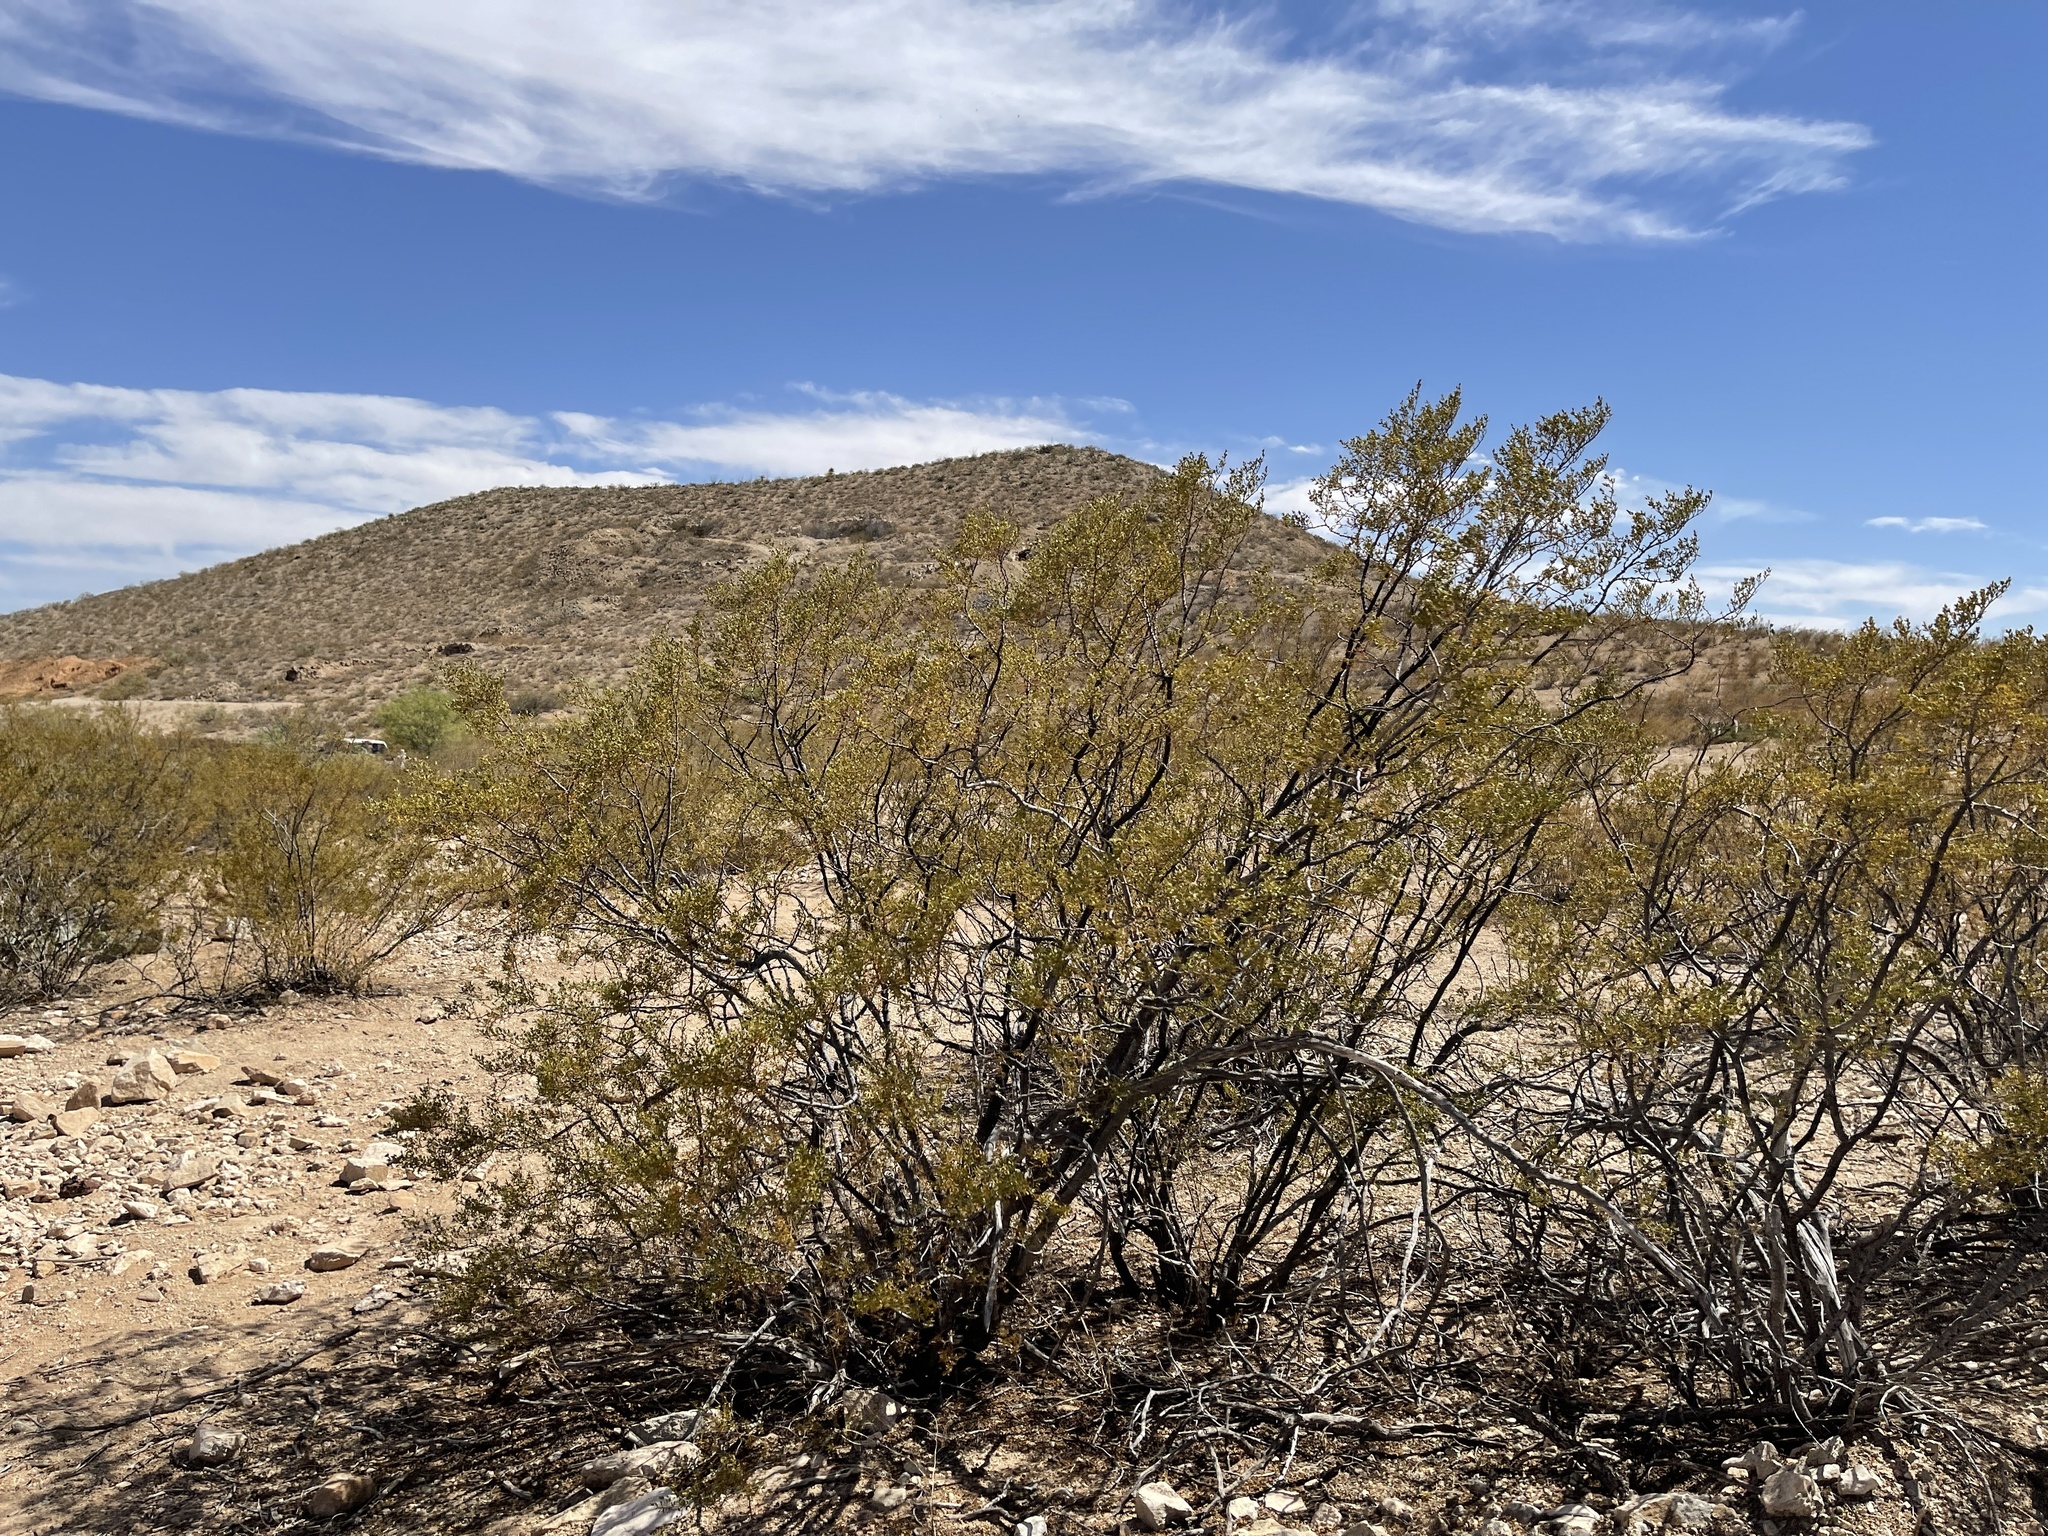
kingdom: Plantae
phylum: Tracheophyta
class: Magnoliopsida
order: Zygophyllales
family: Zygophyllaceae
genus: Larrea
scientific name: Larrea tridentata
